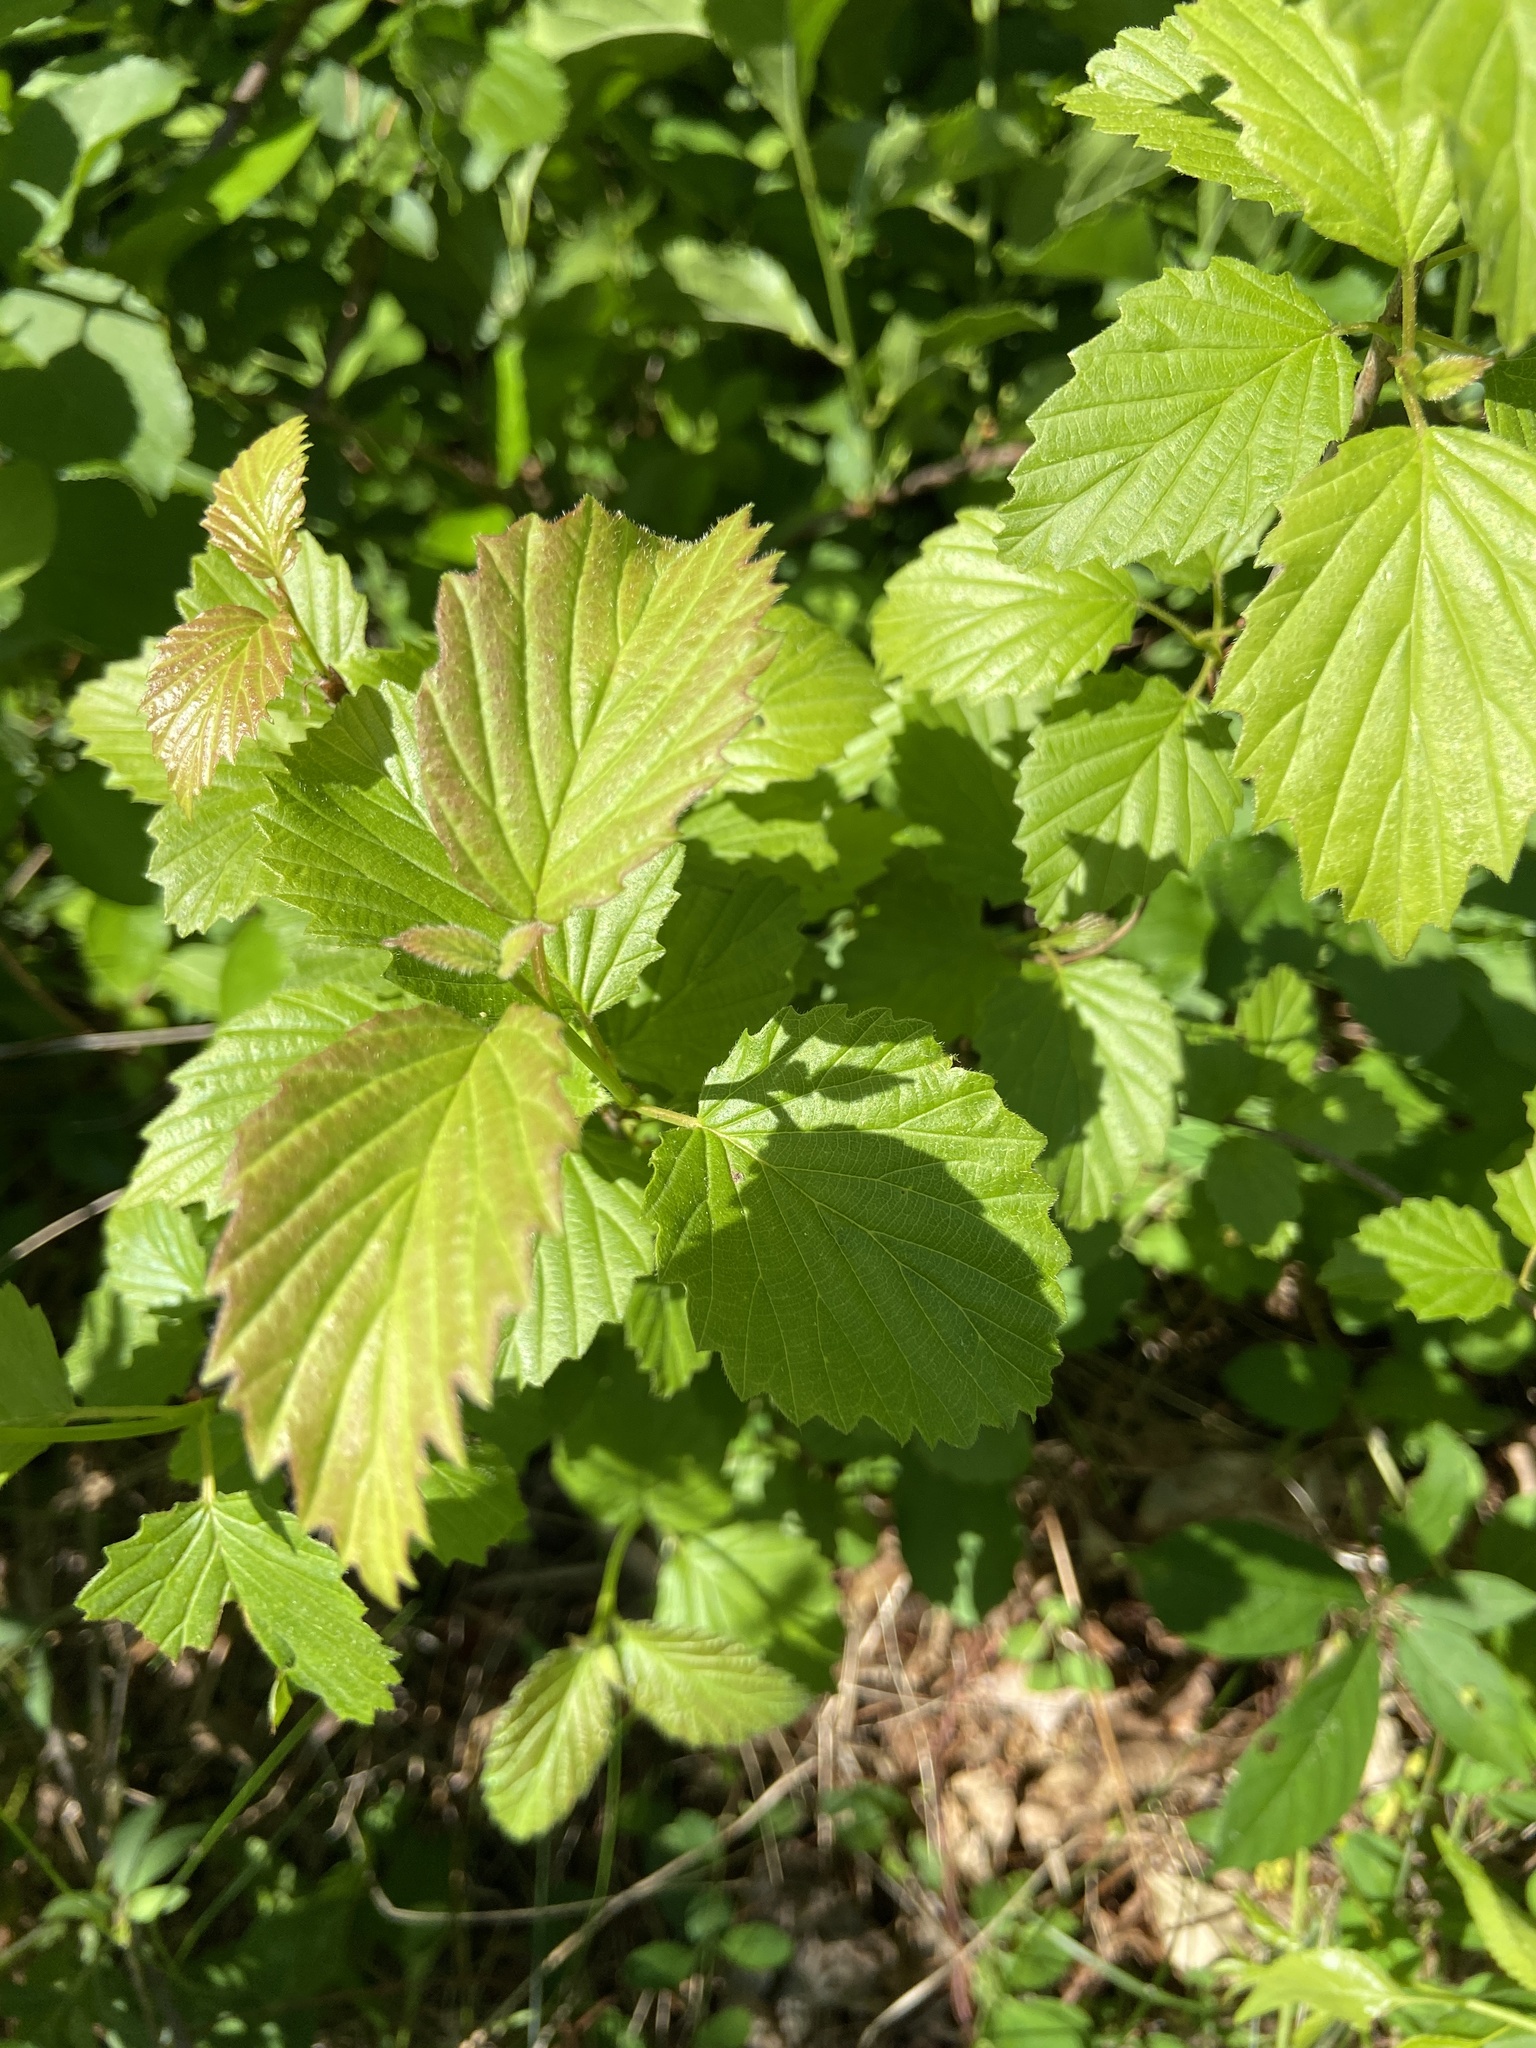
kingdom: Plantae
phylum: Tracheophyta
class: Magnoliopsida
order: Dipsacales
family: Viburnaceae
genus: Viburnum
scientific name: Viburnum recognitum
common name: Northern arrow-wood
